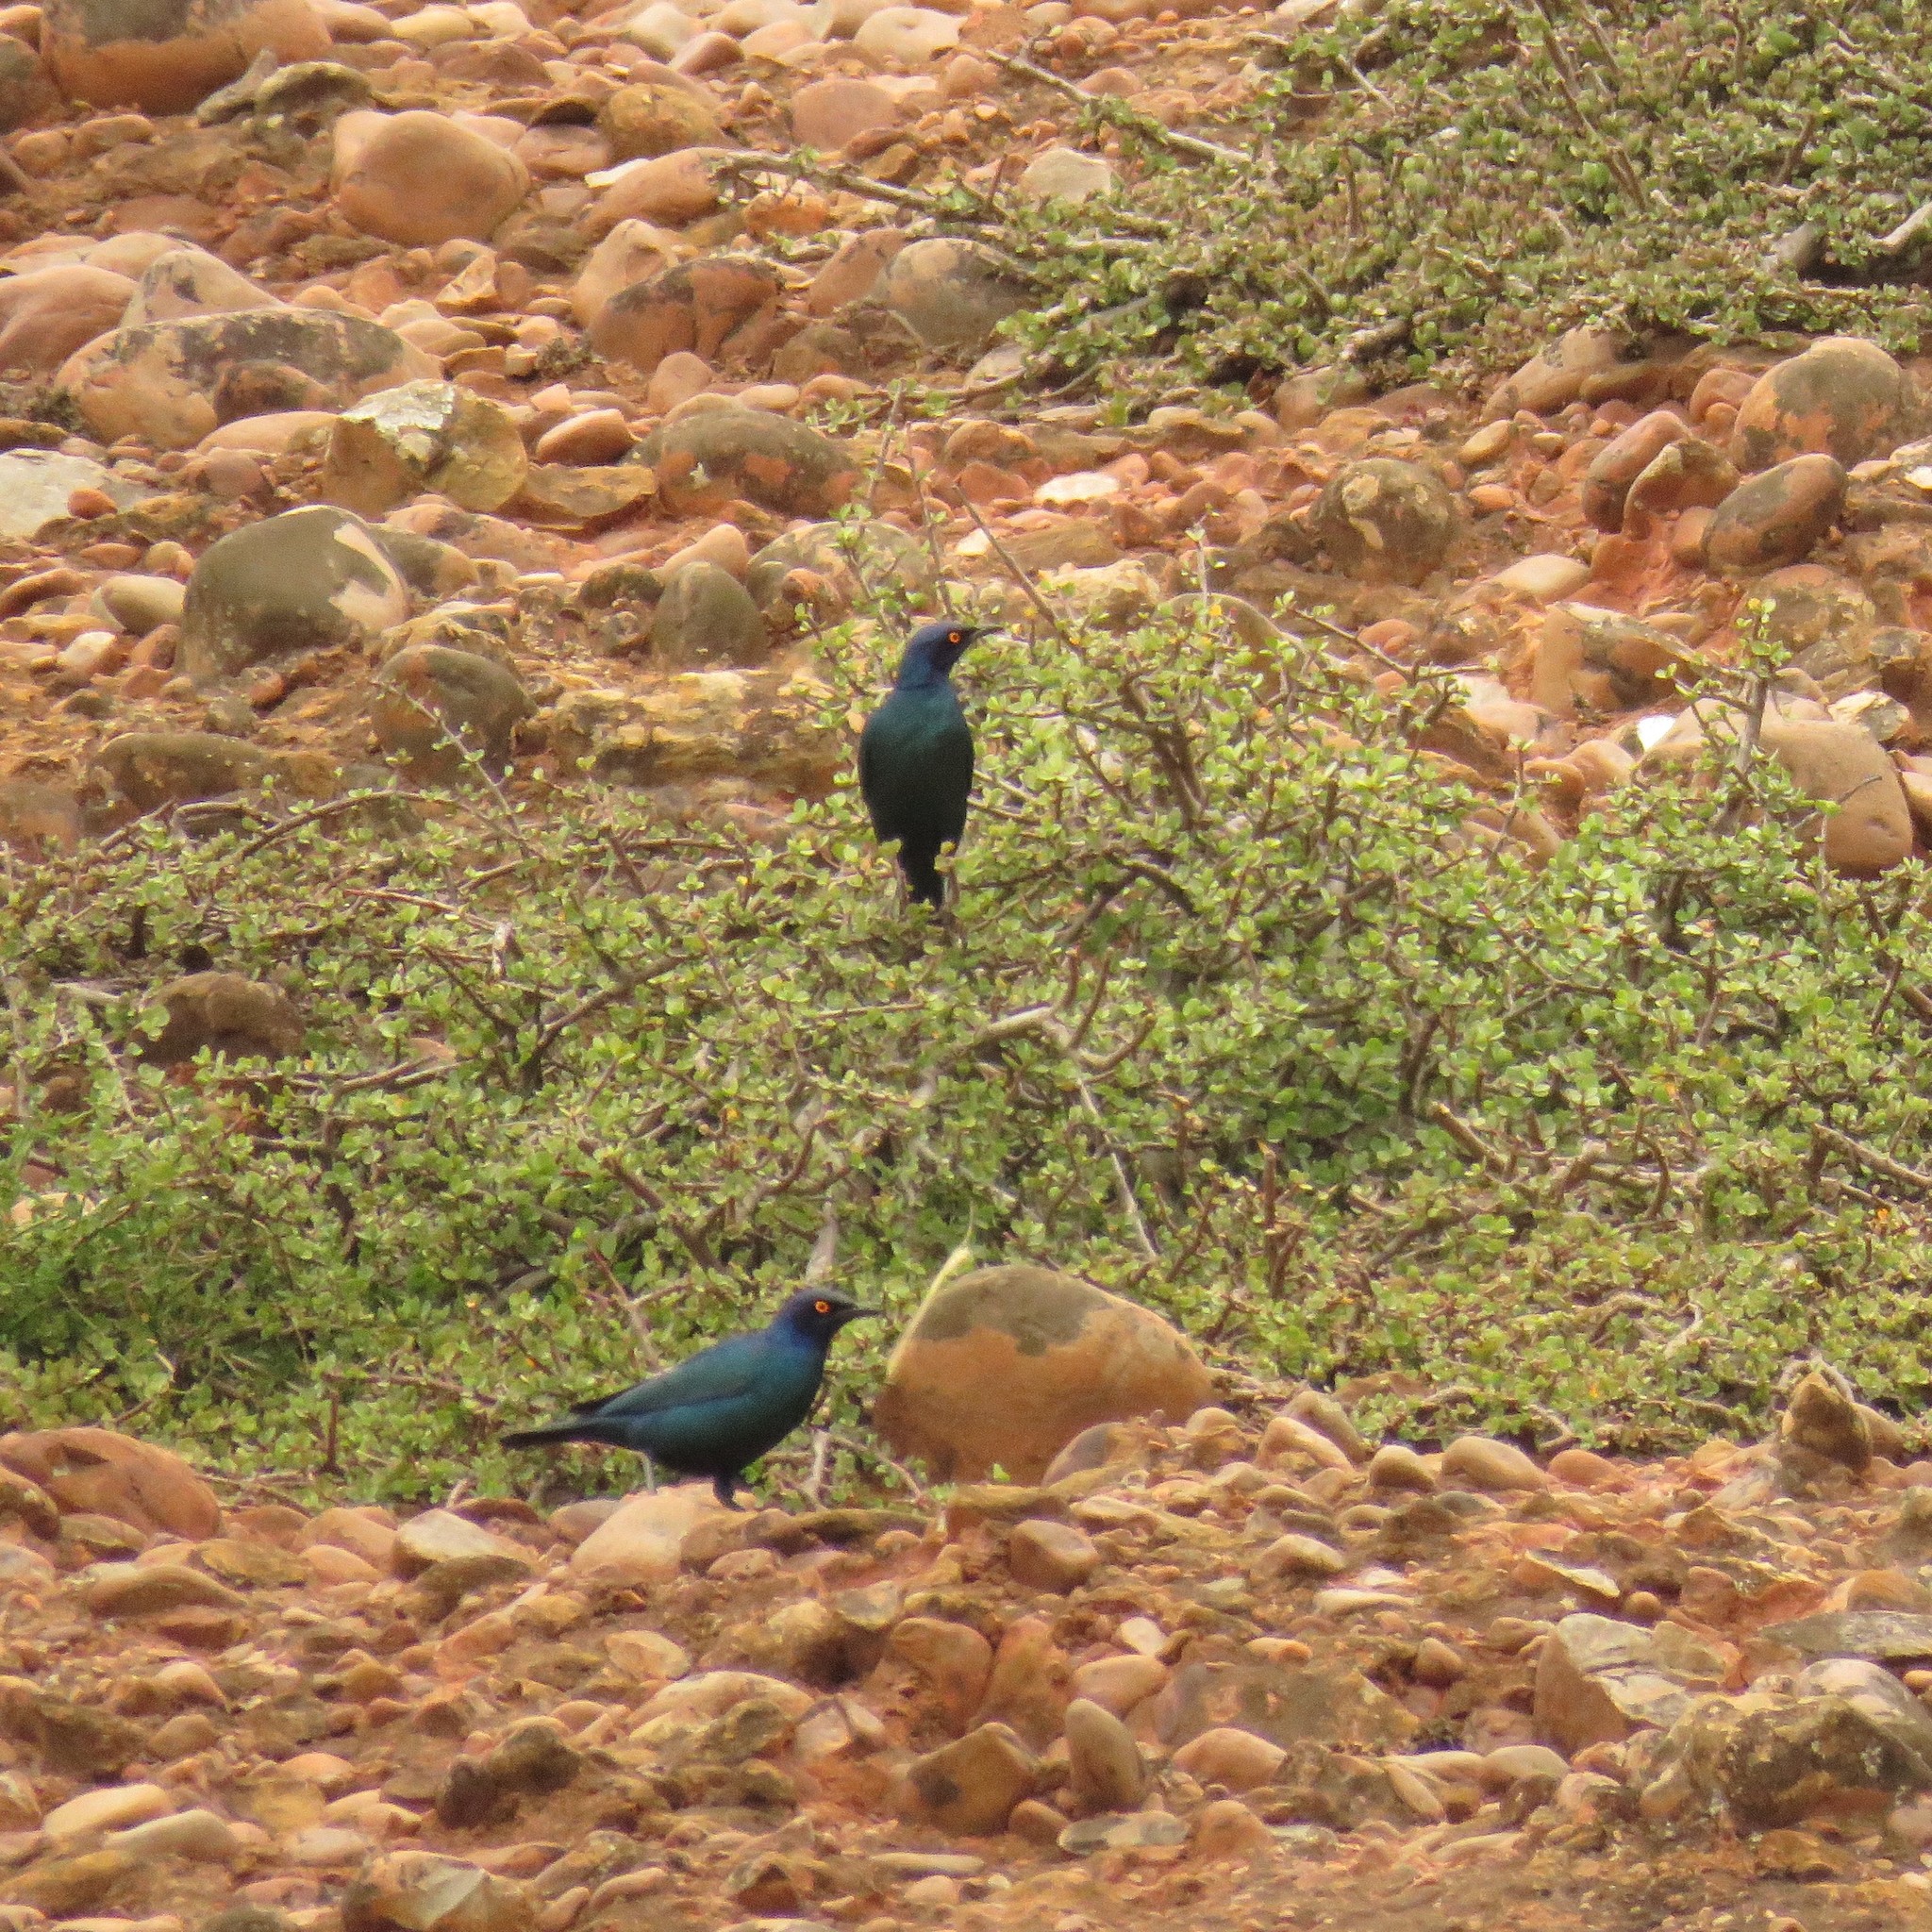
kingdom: Animalia
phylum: Chordata
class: Aves
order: Passeriformes
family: Sturnidae
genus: Lamprotornis
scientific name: Lamprotornis nitens
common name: Cape starling
